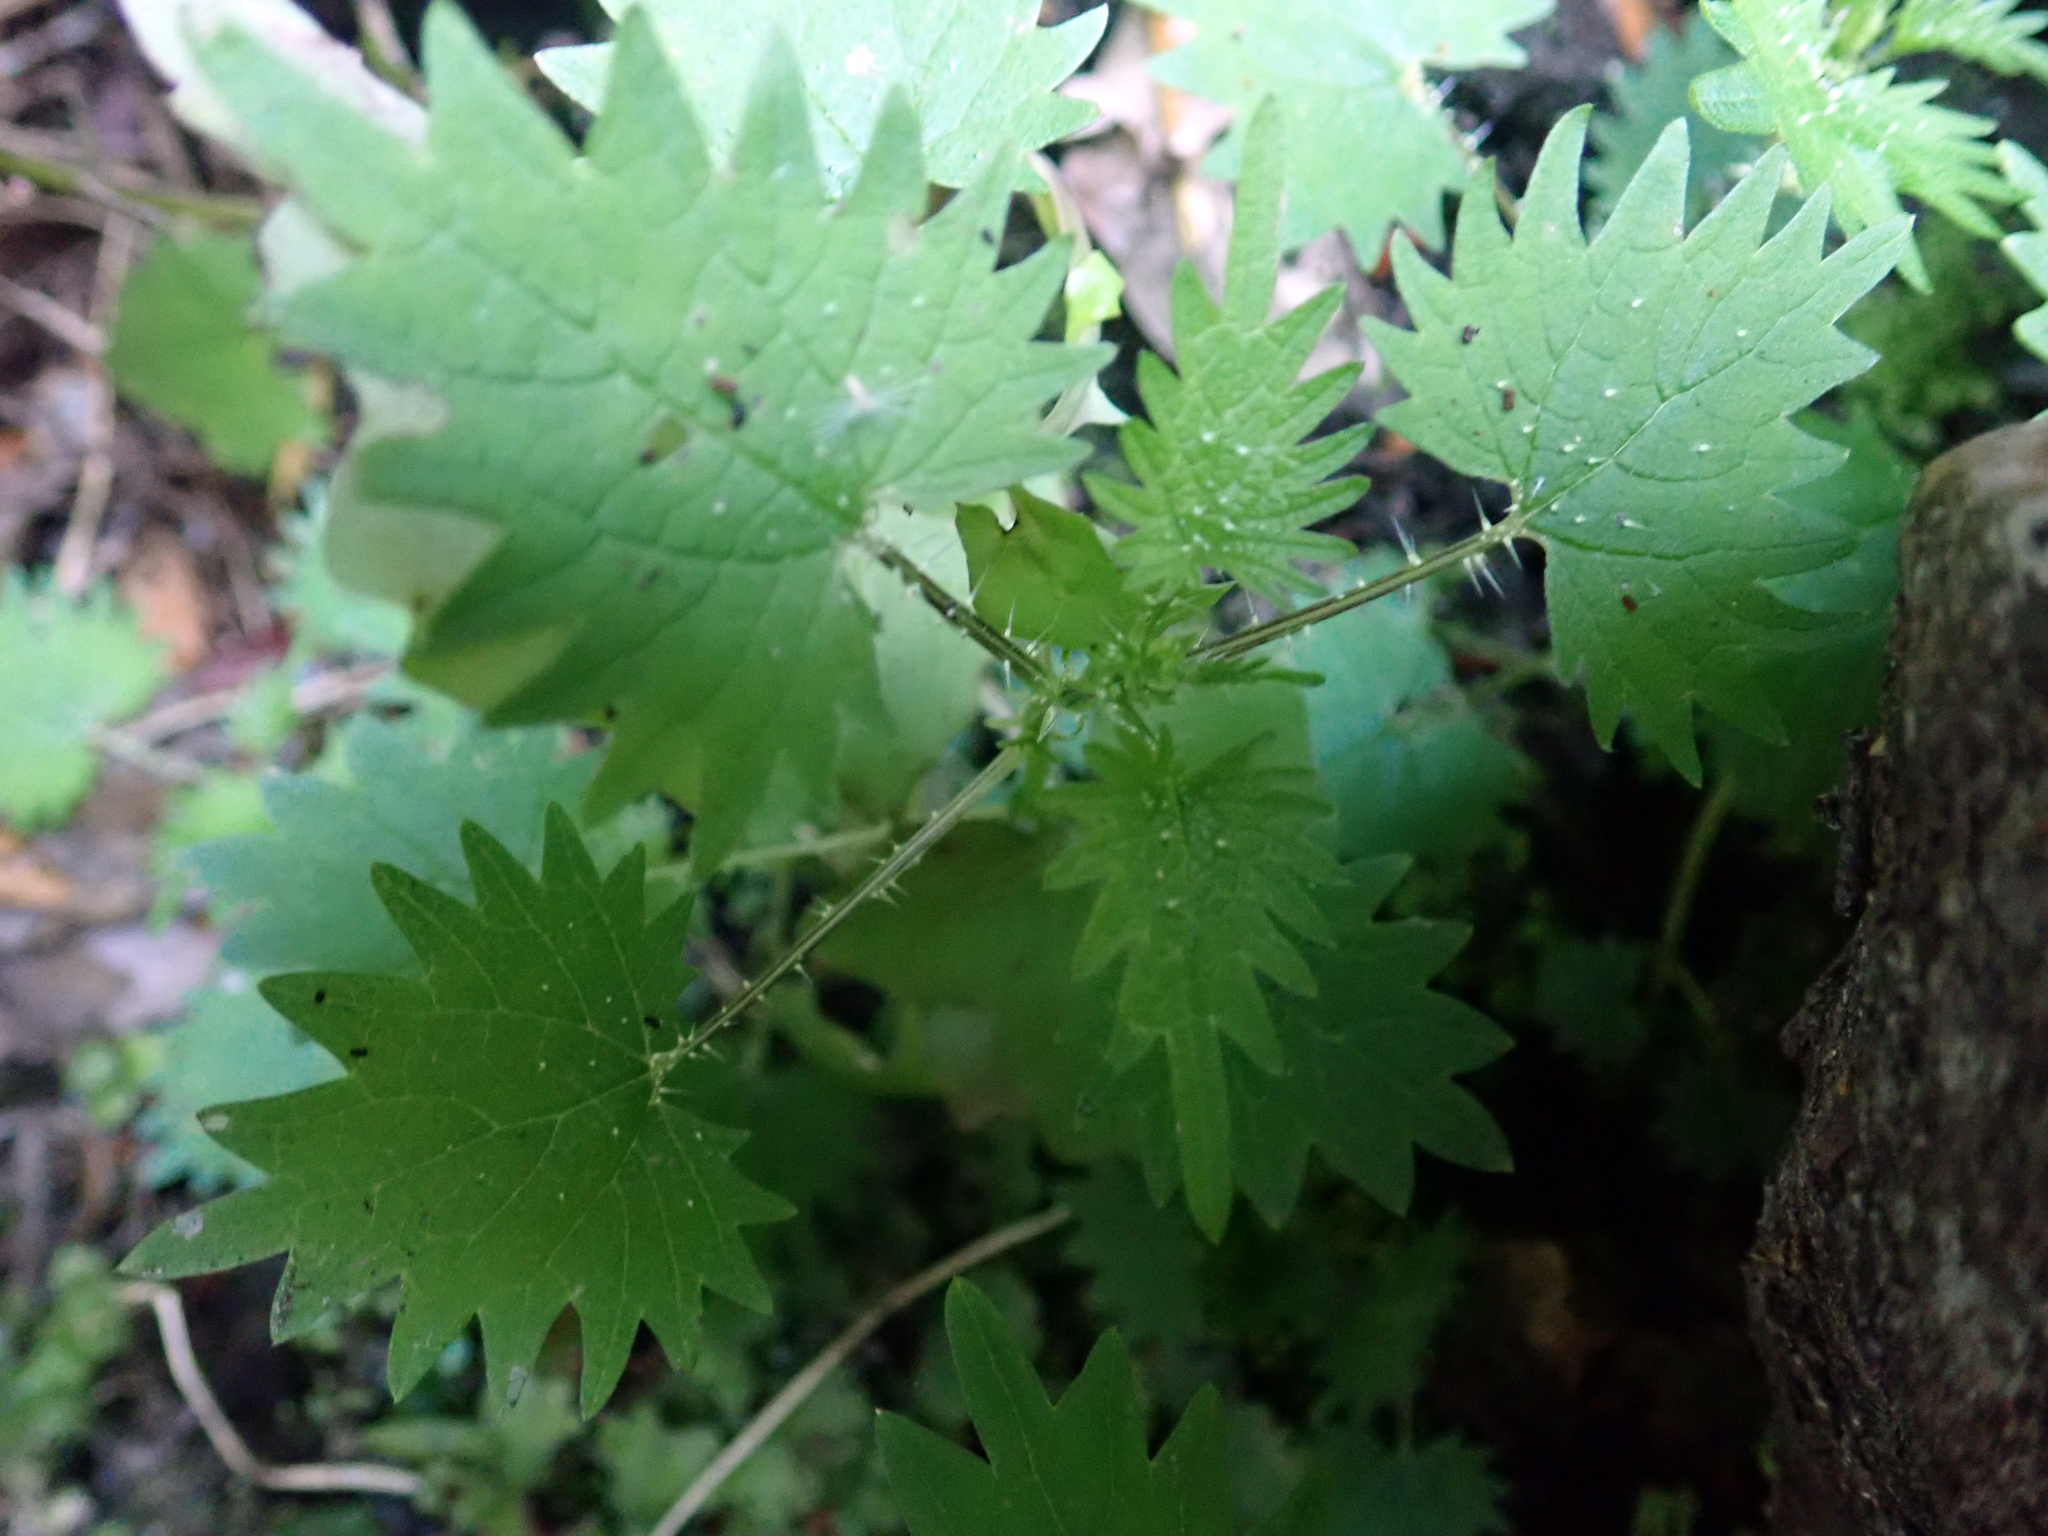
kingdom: Plantae
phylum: Tracheophyta
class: Magnoliopsida
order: Rosales
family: Urticaceae
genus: Urtica
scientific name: Urtica sykesii
